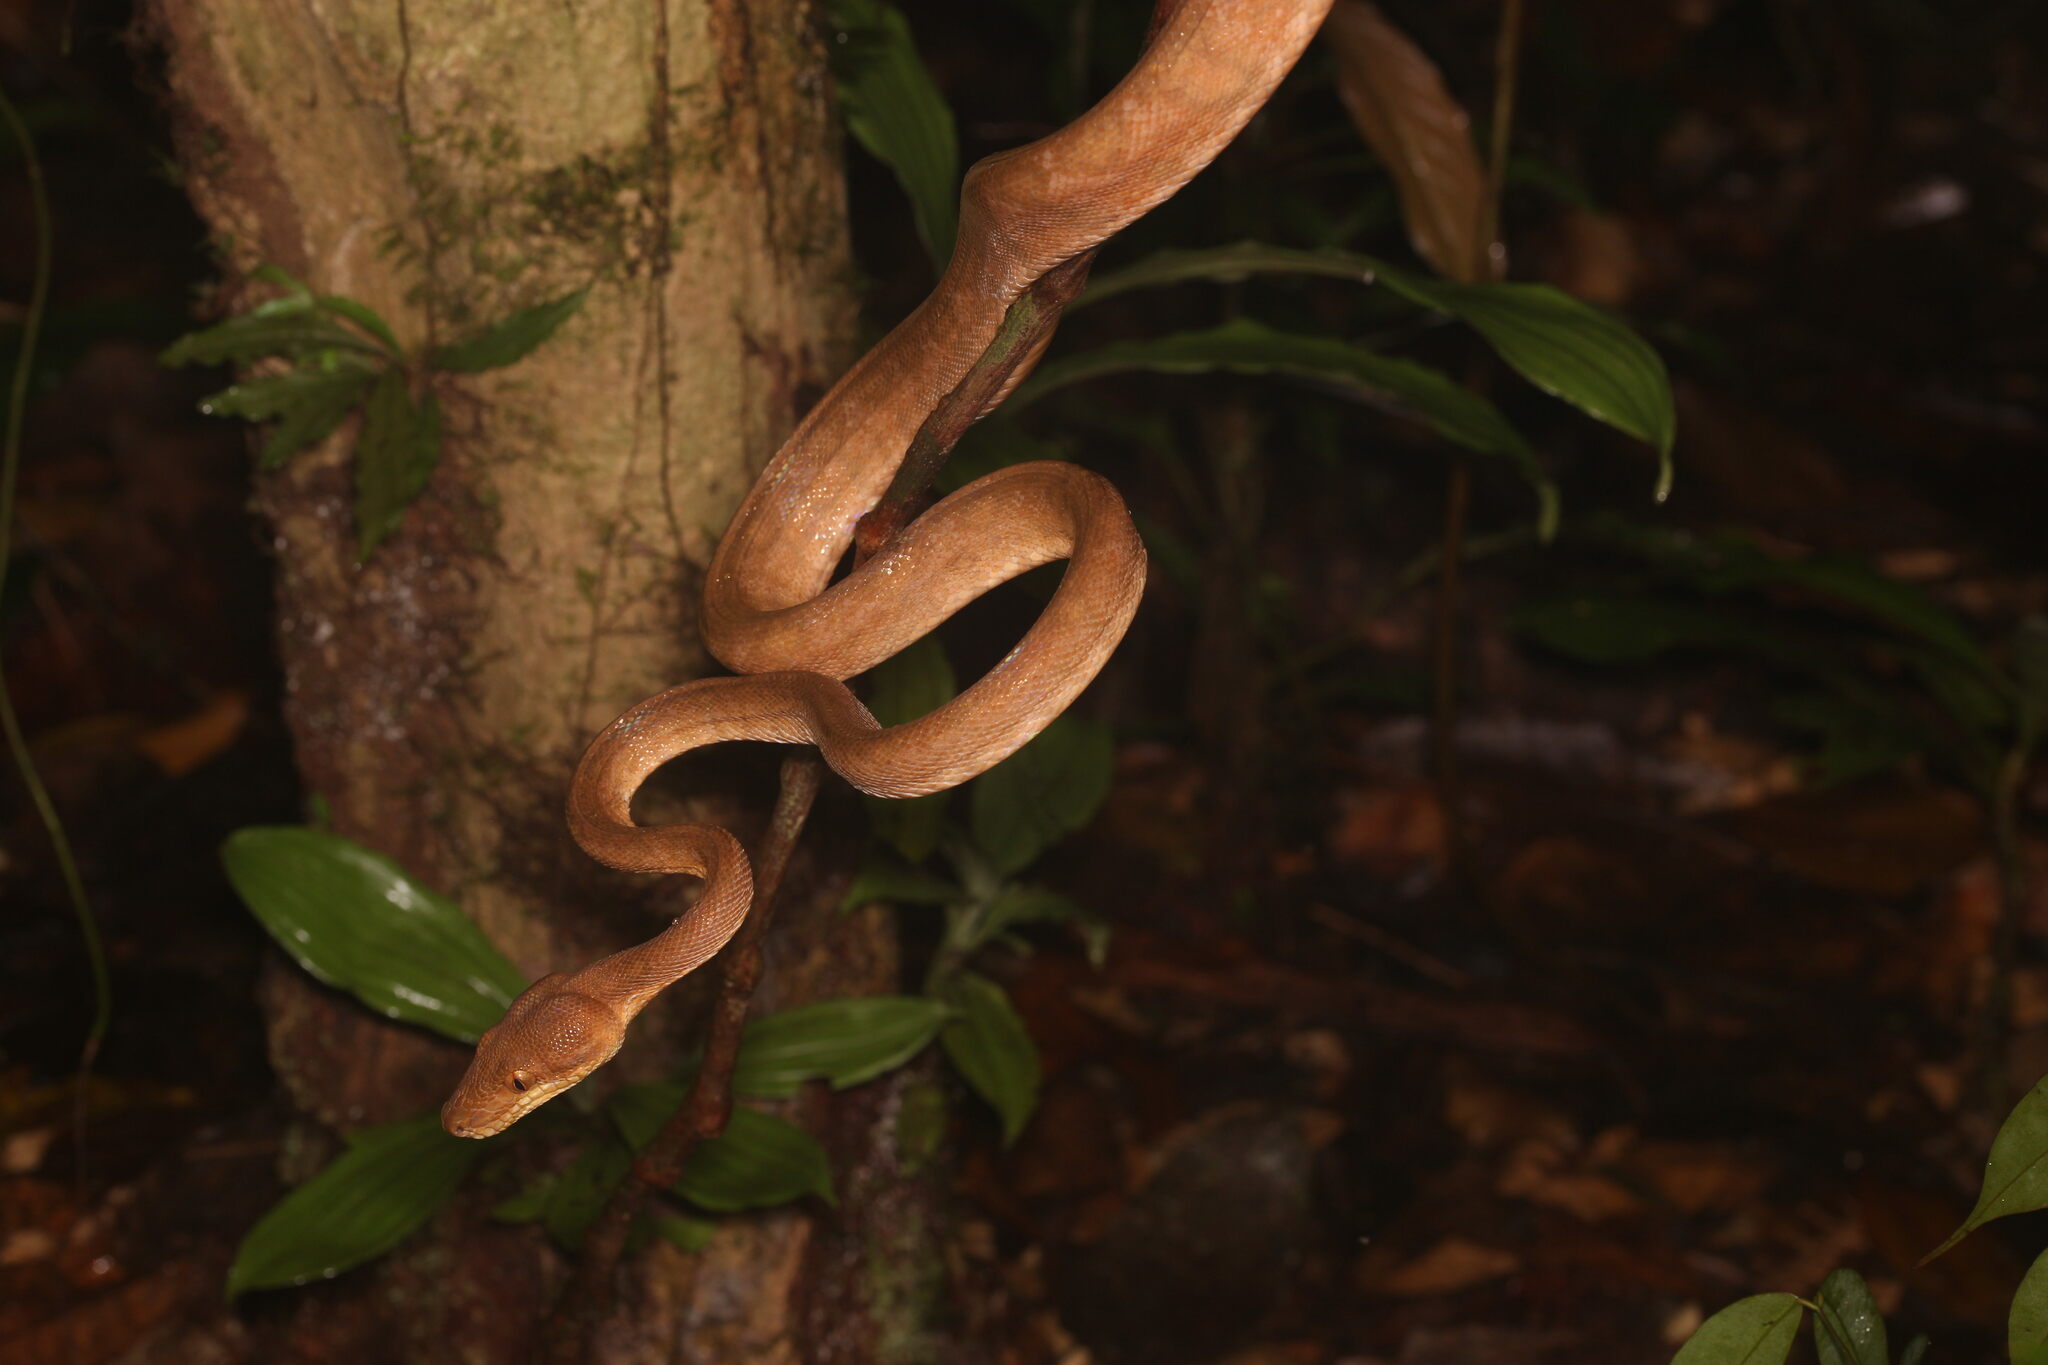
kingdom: Animalia
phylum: Chordata
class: Squamata
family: Boidae
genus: Corallus
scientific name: Corallus hortulana
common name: Garden tree boa
